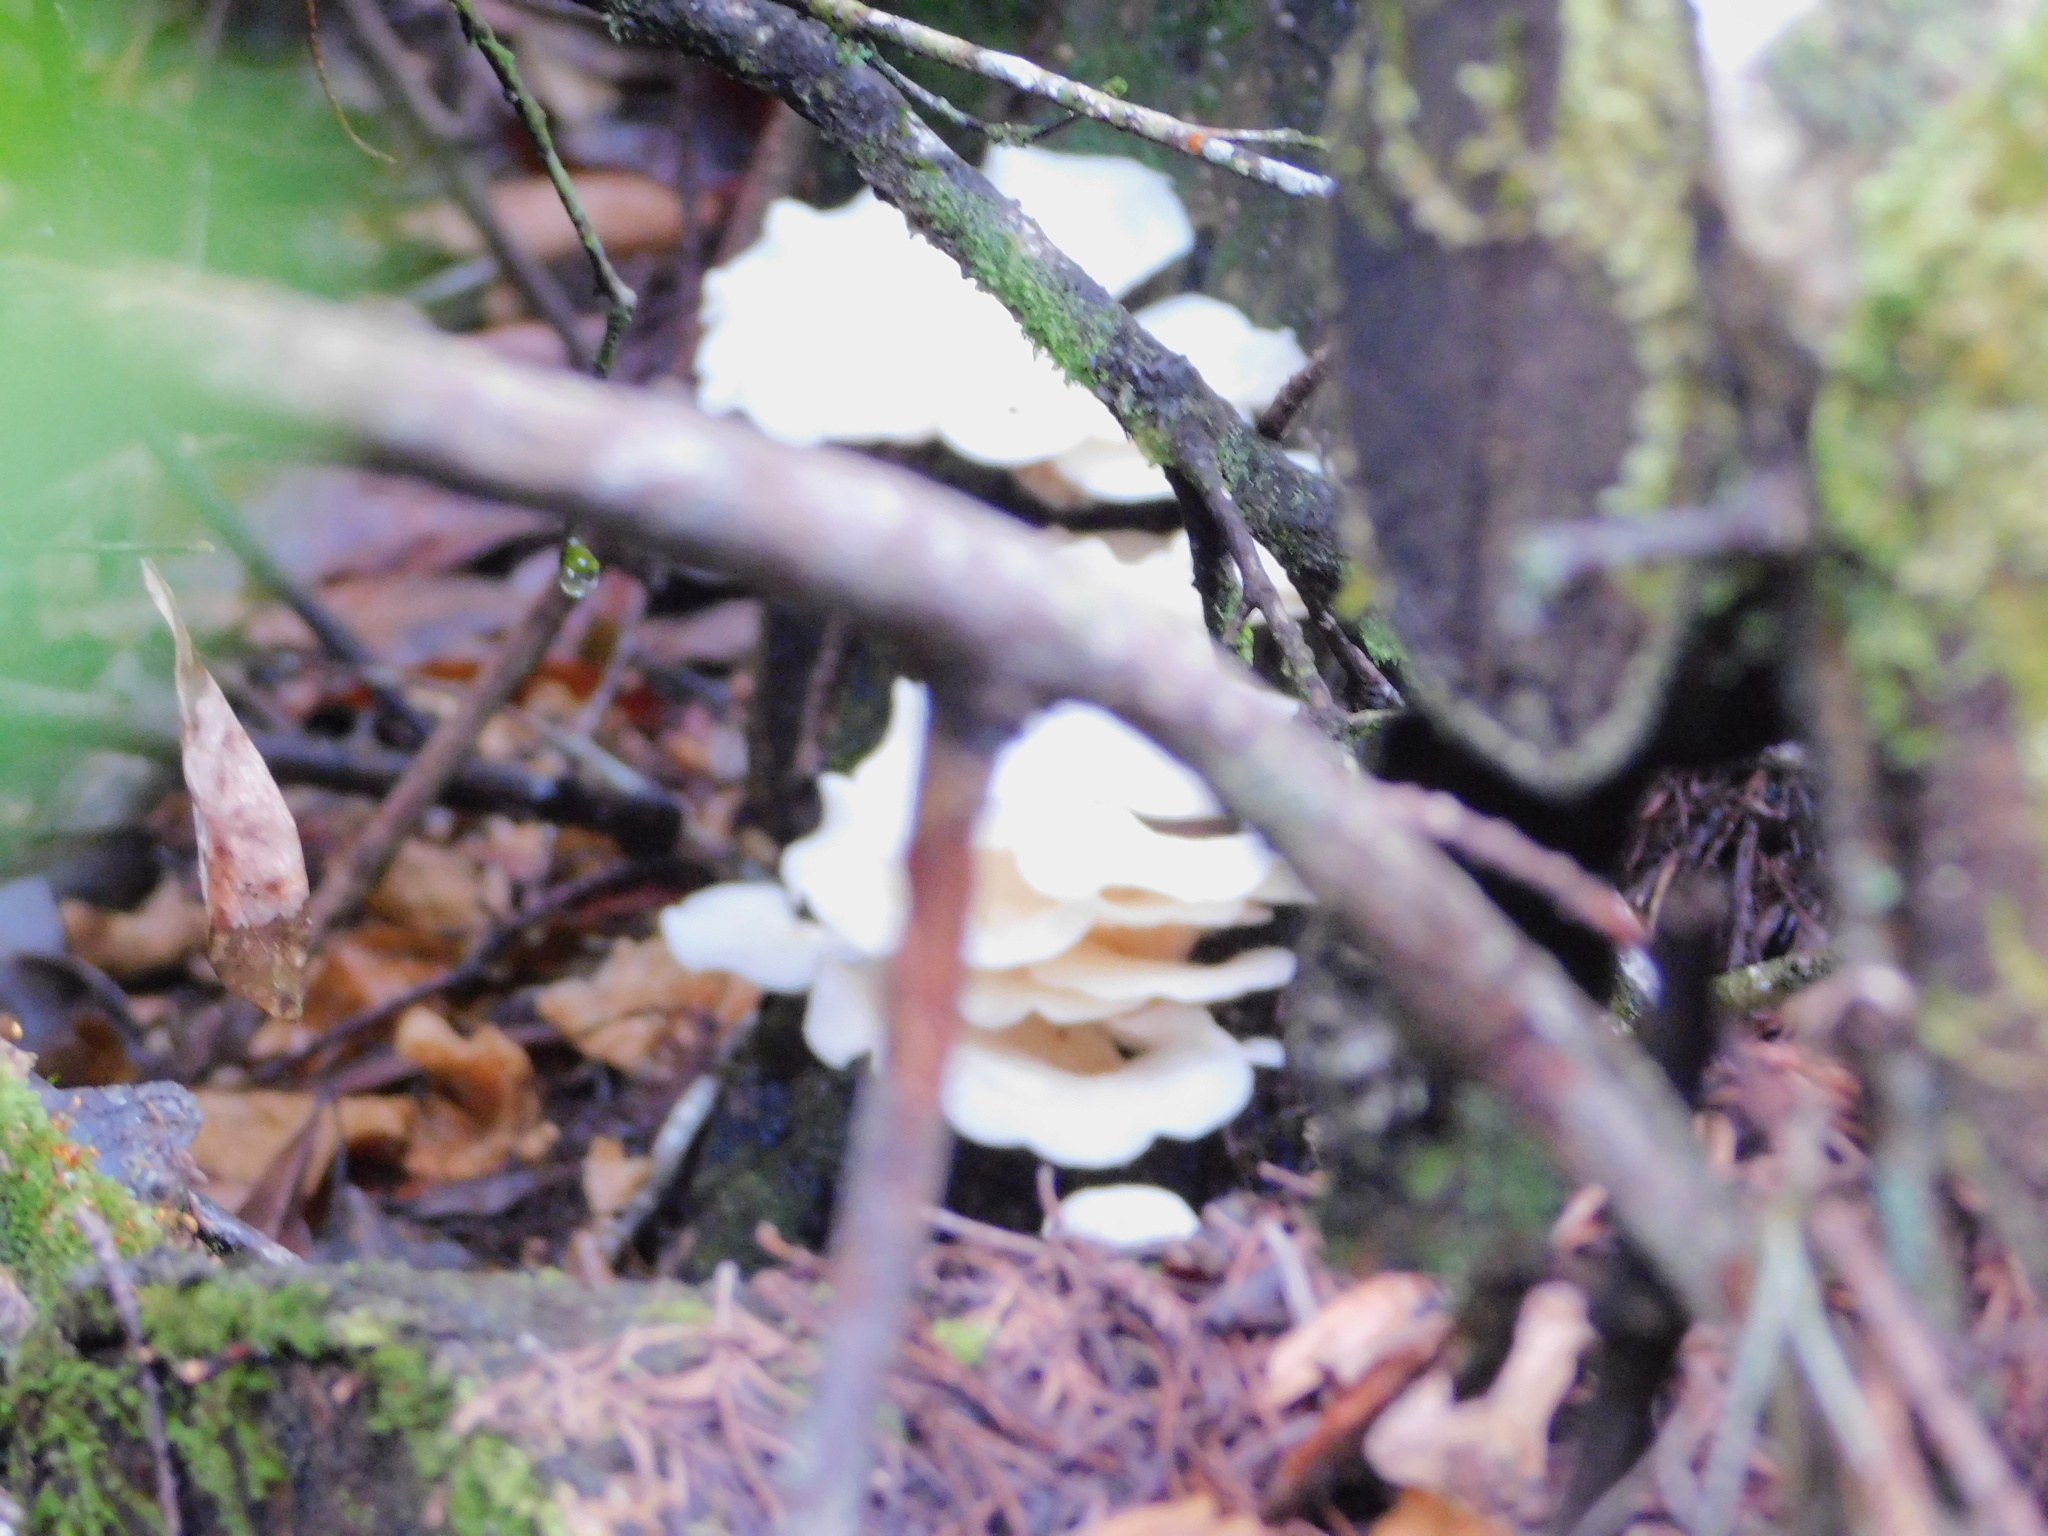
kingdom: Fungi
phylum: Basidiomycota
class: Agaricomycetes
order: Polyporales
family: Polyporaceae
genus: Favolus
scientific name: Favolus tenuiculus
